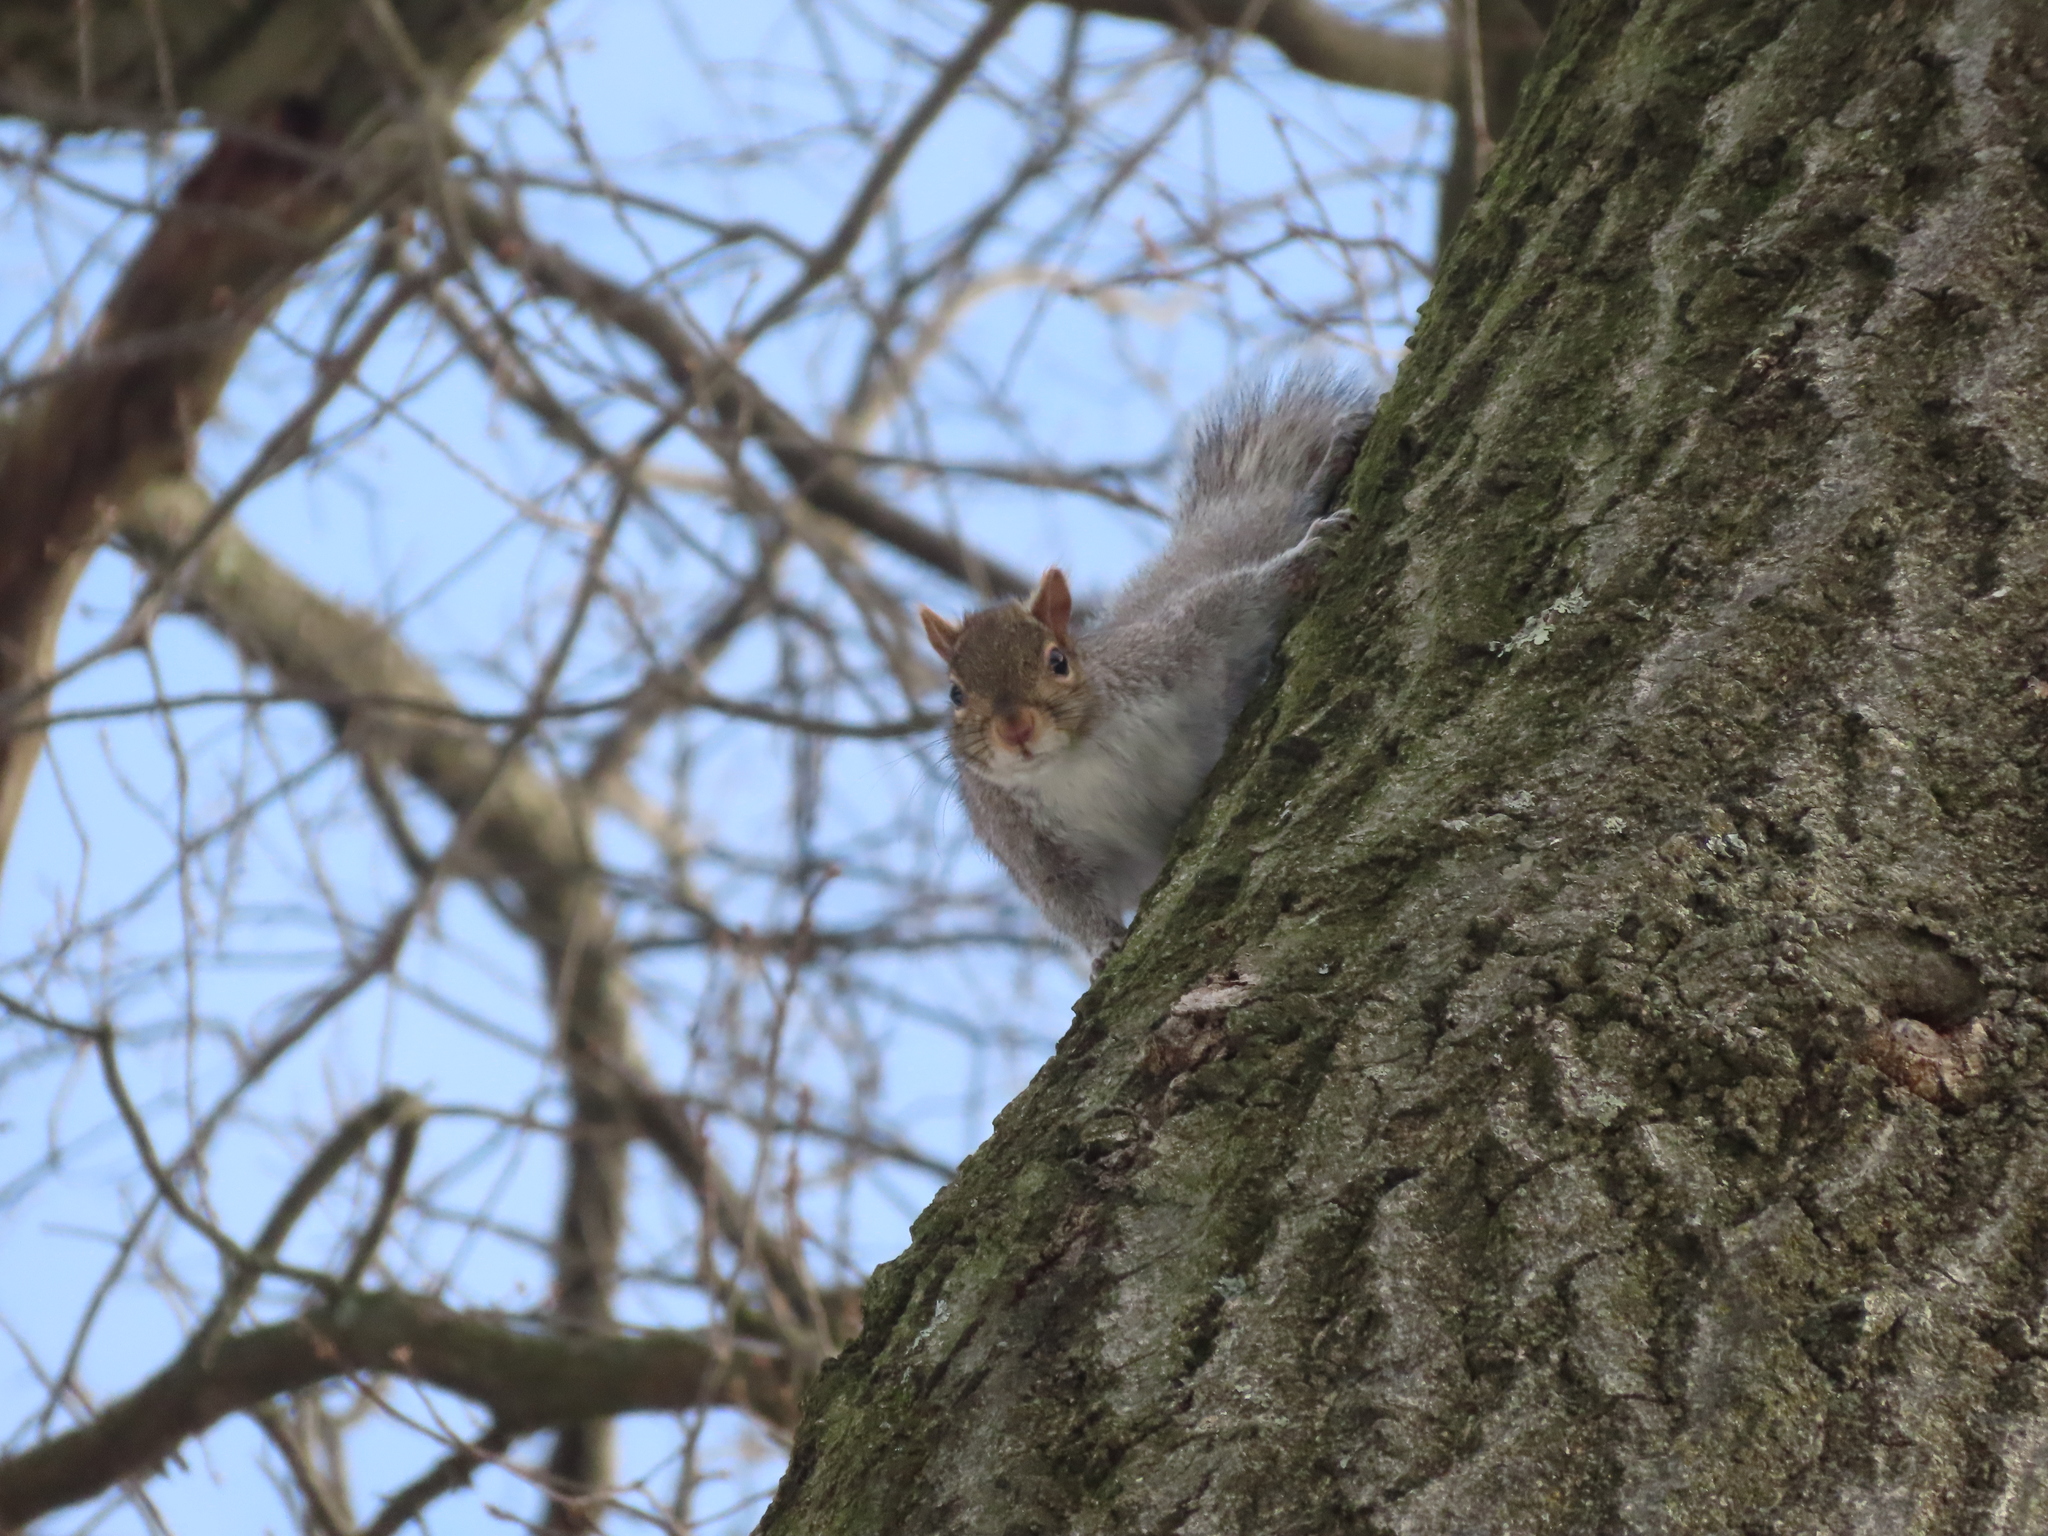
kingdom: Animalia
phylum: Chordata
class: Mammalia
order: Rodentia
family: Sciuridae
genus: Sciurus
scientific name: Sciurus carolinensis
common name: Eastern gray squirrel
